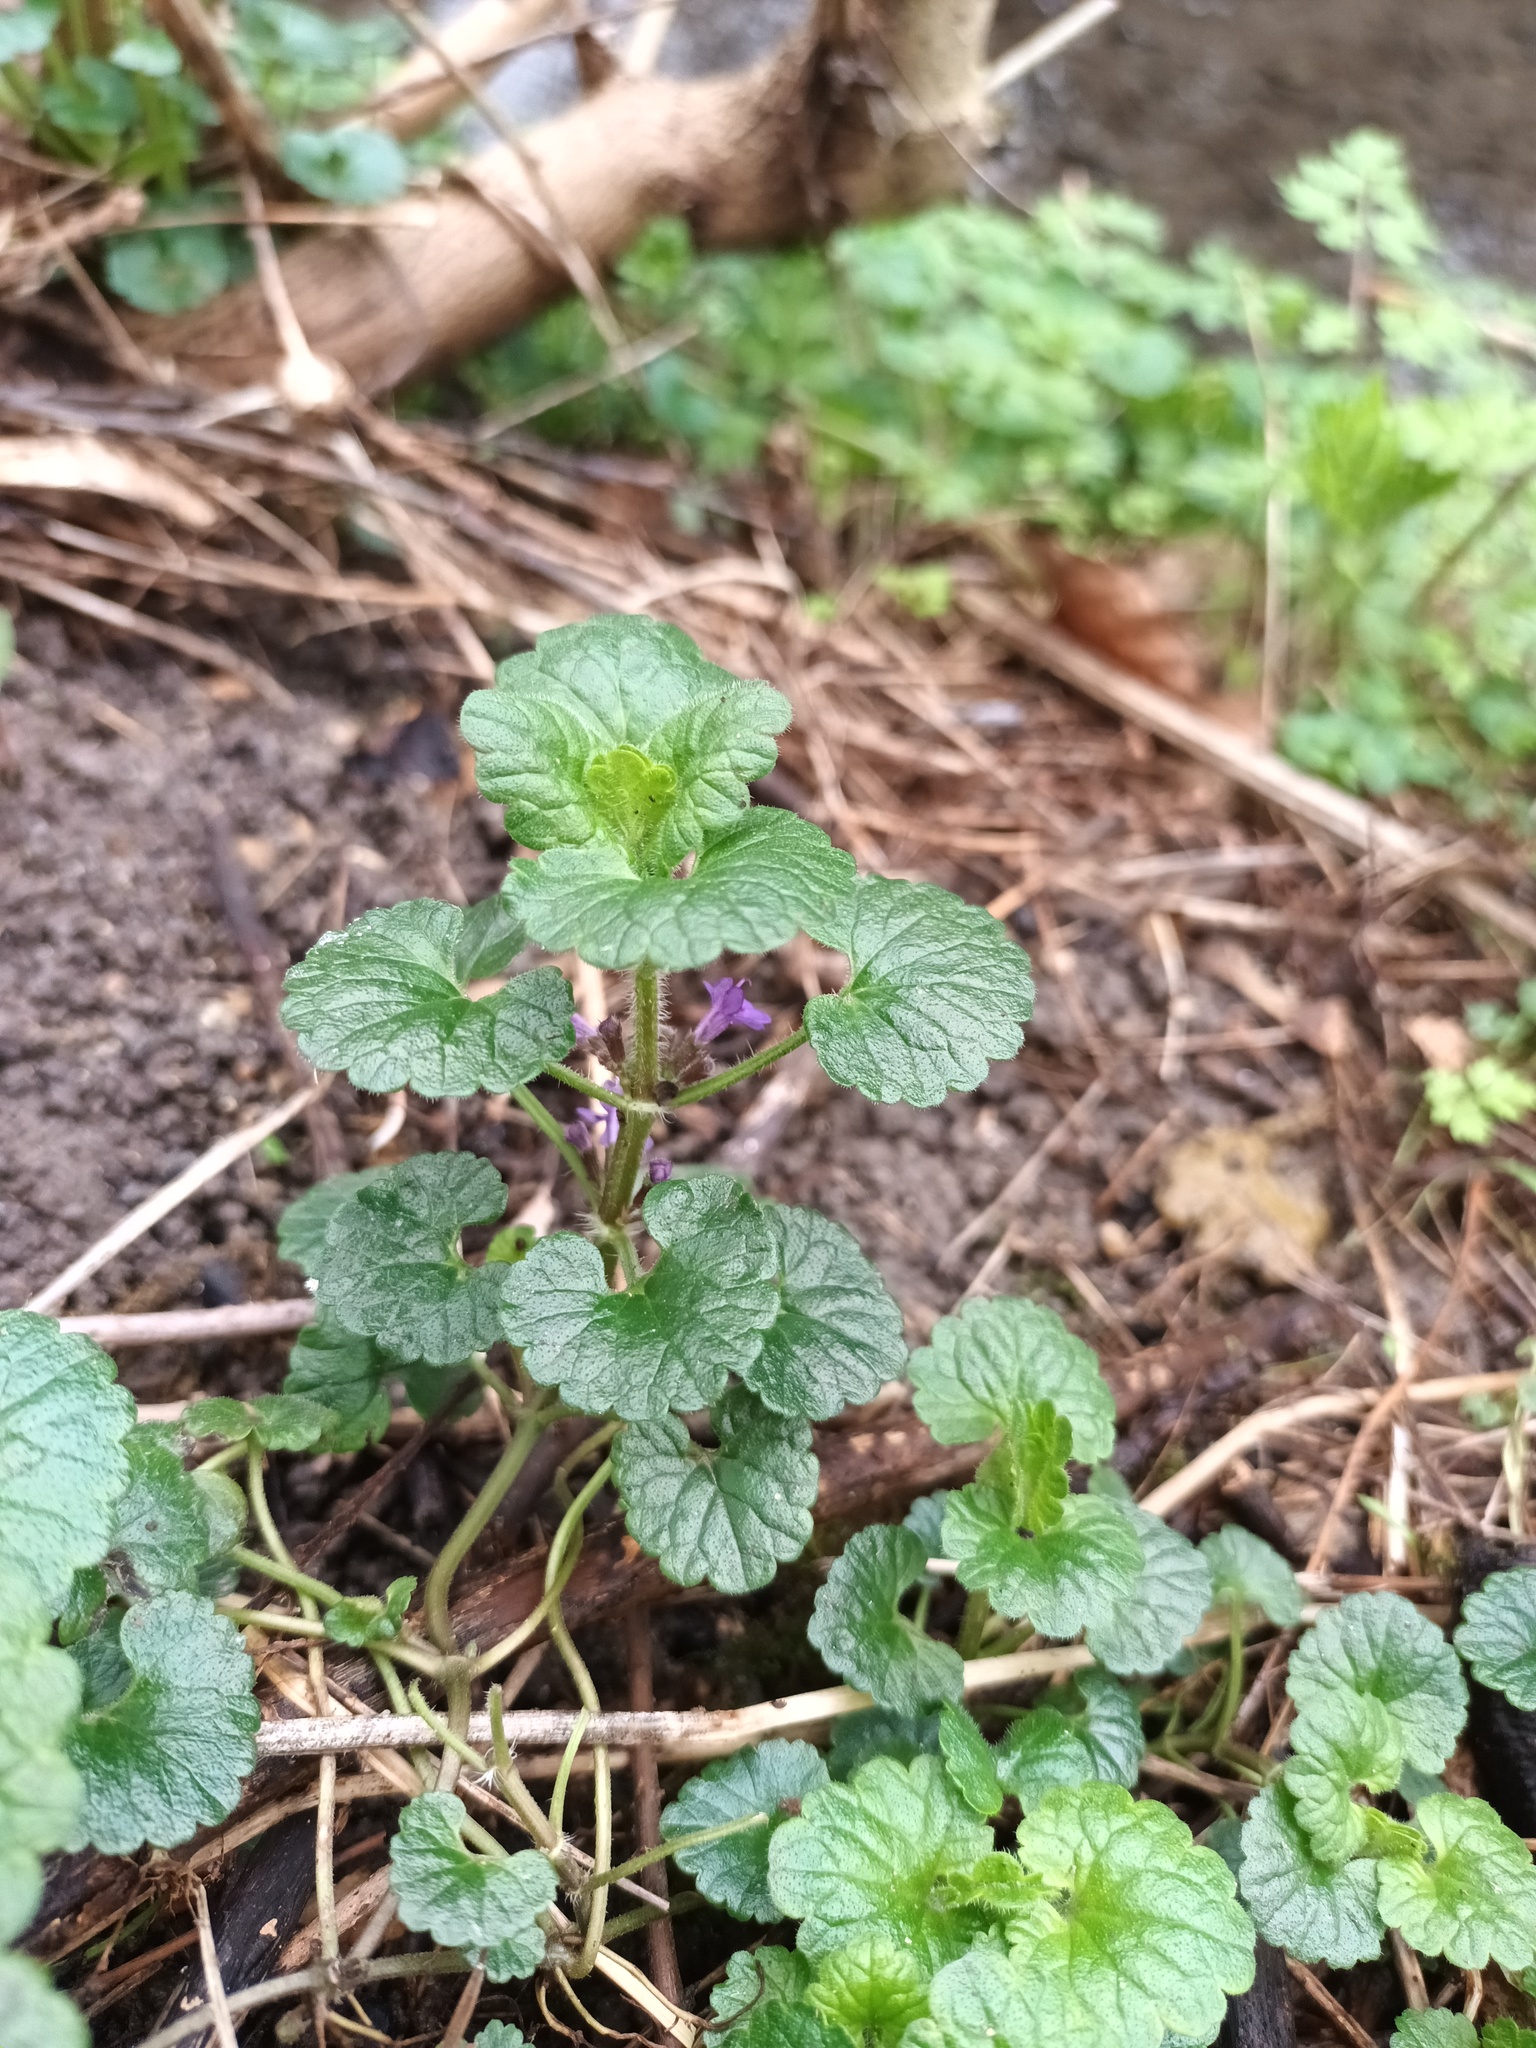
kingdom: Plantae
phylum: Tracheophyta
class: Magnoliopsida
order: Lamiales
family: Lamiaceae
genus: Glechoma
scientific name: Glechoma hederacea
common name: Ground ivy
